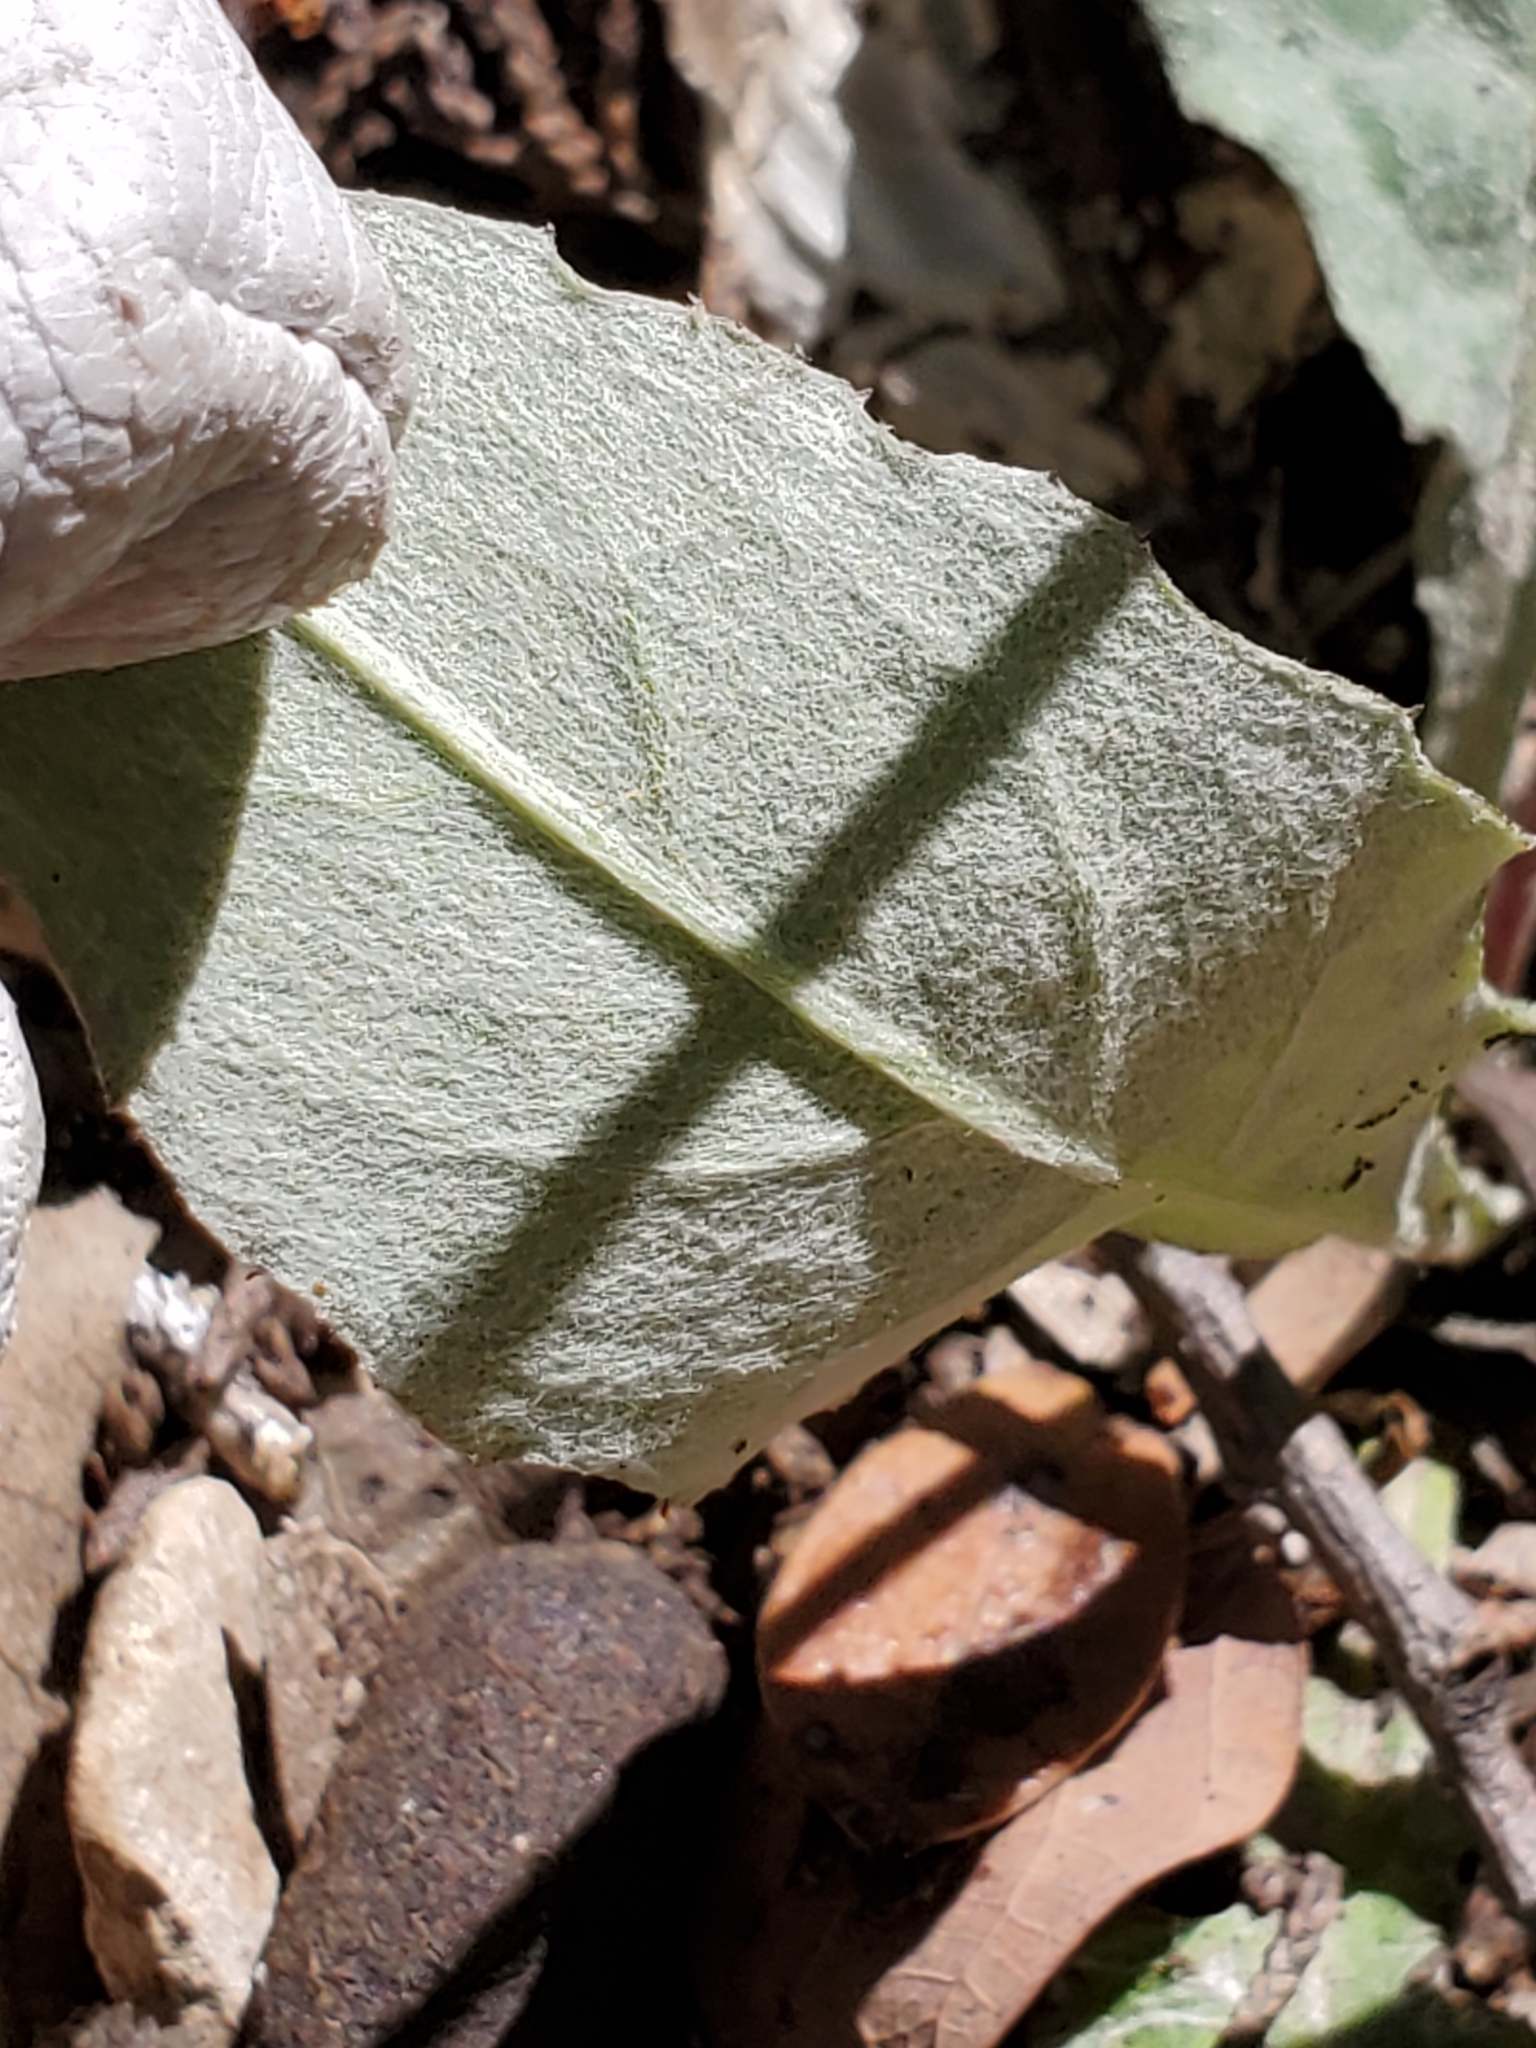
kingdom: Plantae
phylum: Tracheophyta
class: Magnoliopsida
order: Asterales
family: Asteraceae
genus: Chaptalia
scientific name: Chaptalia texana
